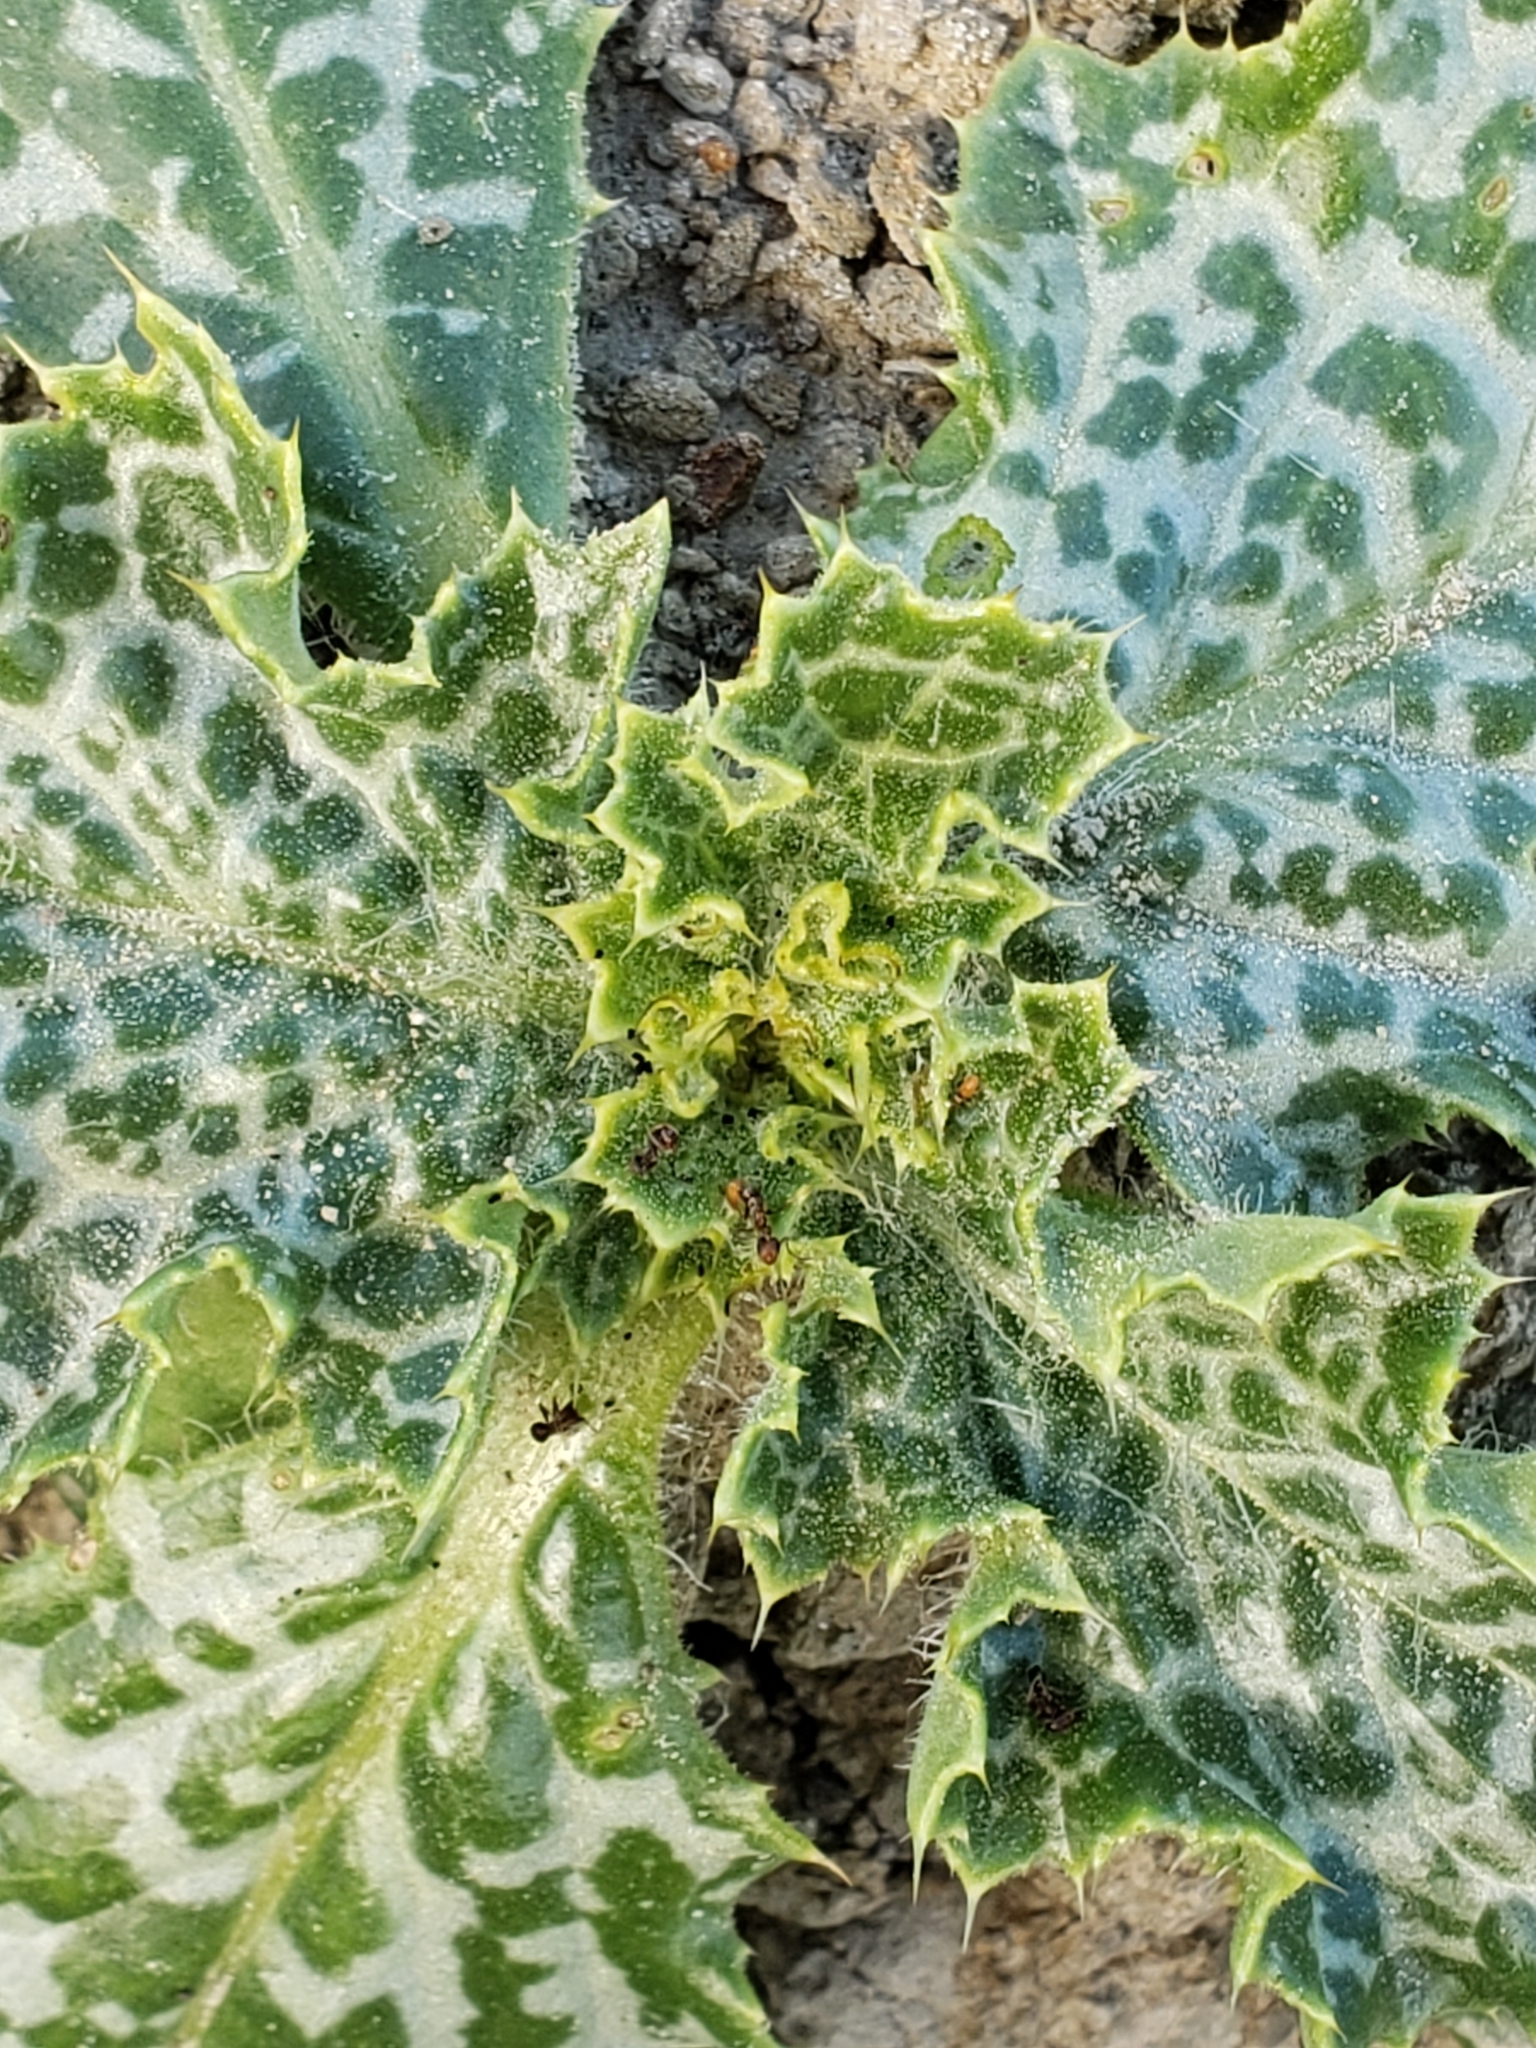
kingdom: Plantae
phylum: Tracheophyta
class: Magnoliopsida
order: Asterales
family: Asteraceae
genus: Silybum
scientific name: Silybum marianum
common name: Milk thistle
